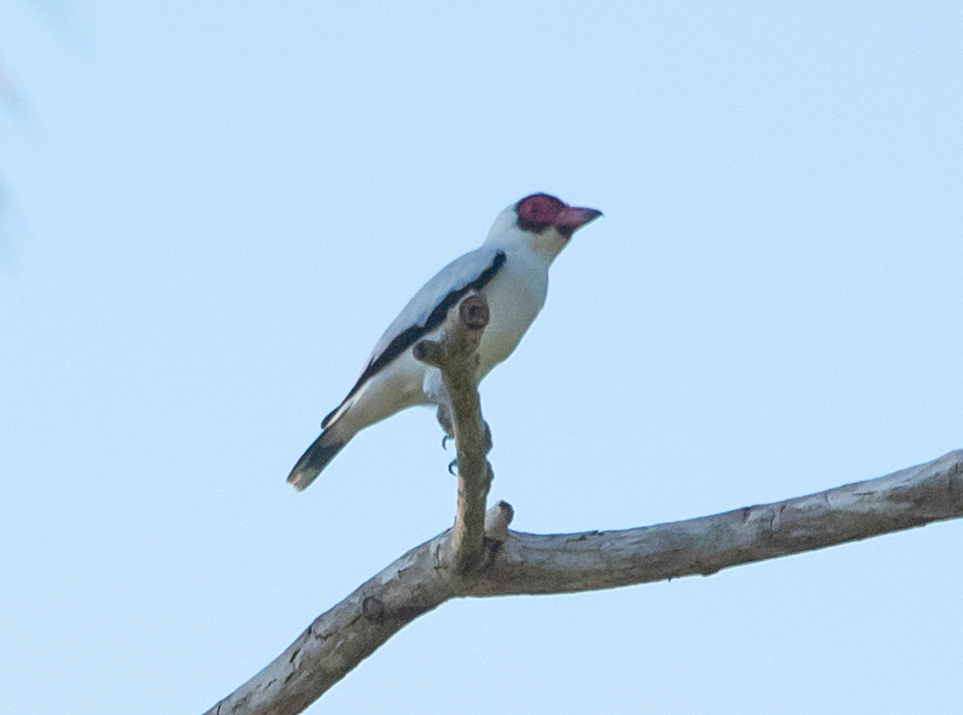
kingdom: Animalia
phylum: Chordata
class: Aves
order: Passeriformes
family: Cotingidae
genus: Tityra
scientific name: Tityra semifasciata
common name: Masked tityra
